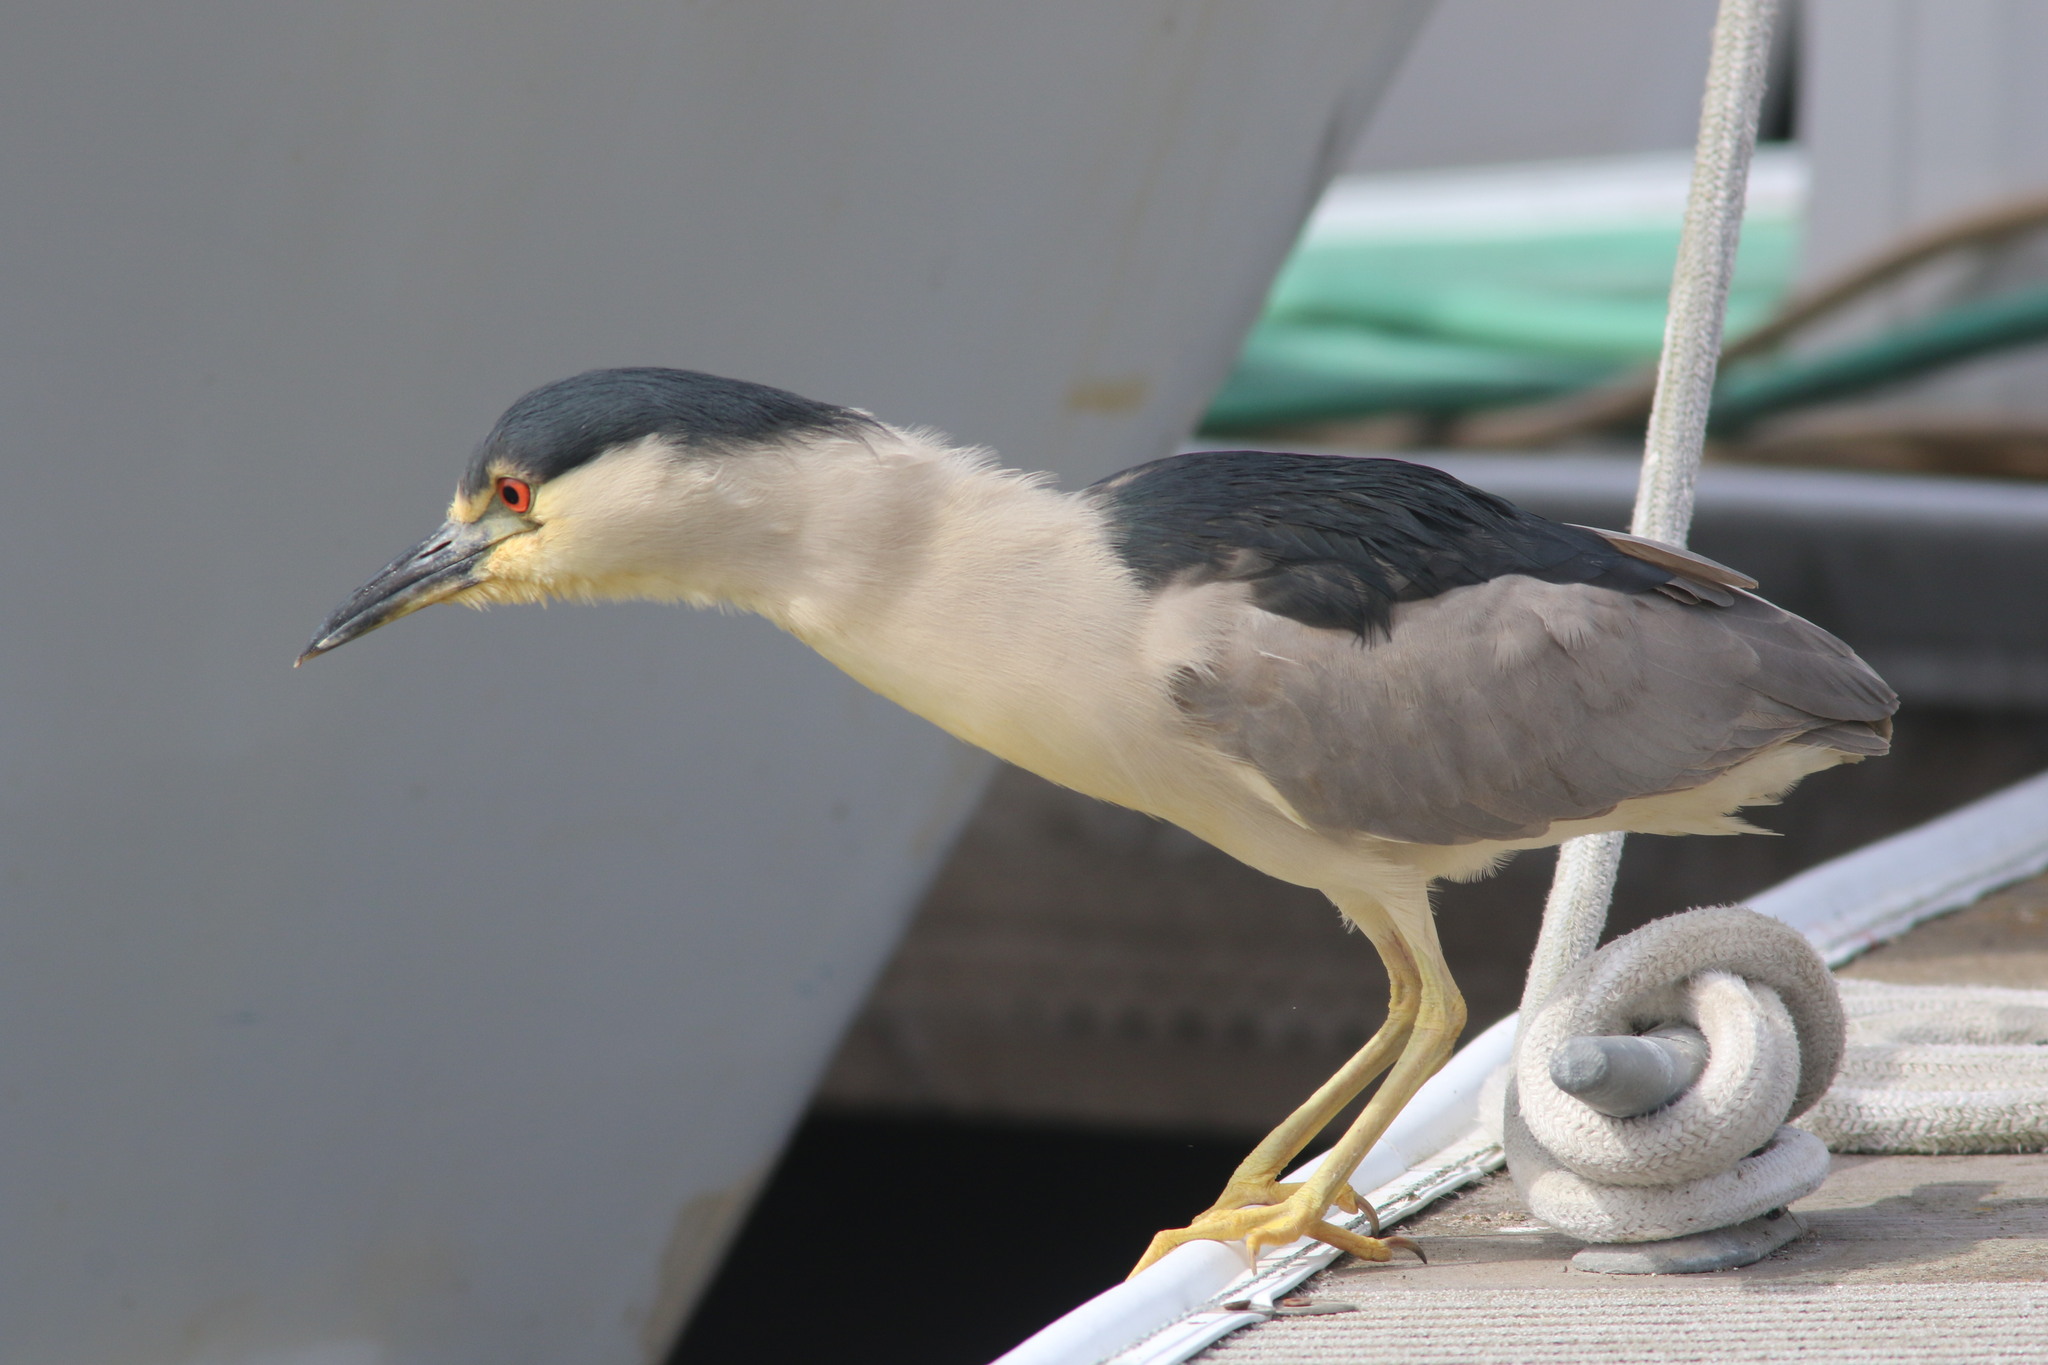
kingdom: Animalia
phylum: Chordata
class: Aves
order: Pelecaniformes
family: Ardeidae
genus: Nycticorax
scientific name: Nycticorax nycticorax
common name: Black-crowned night heron
